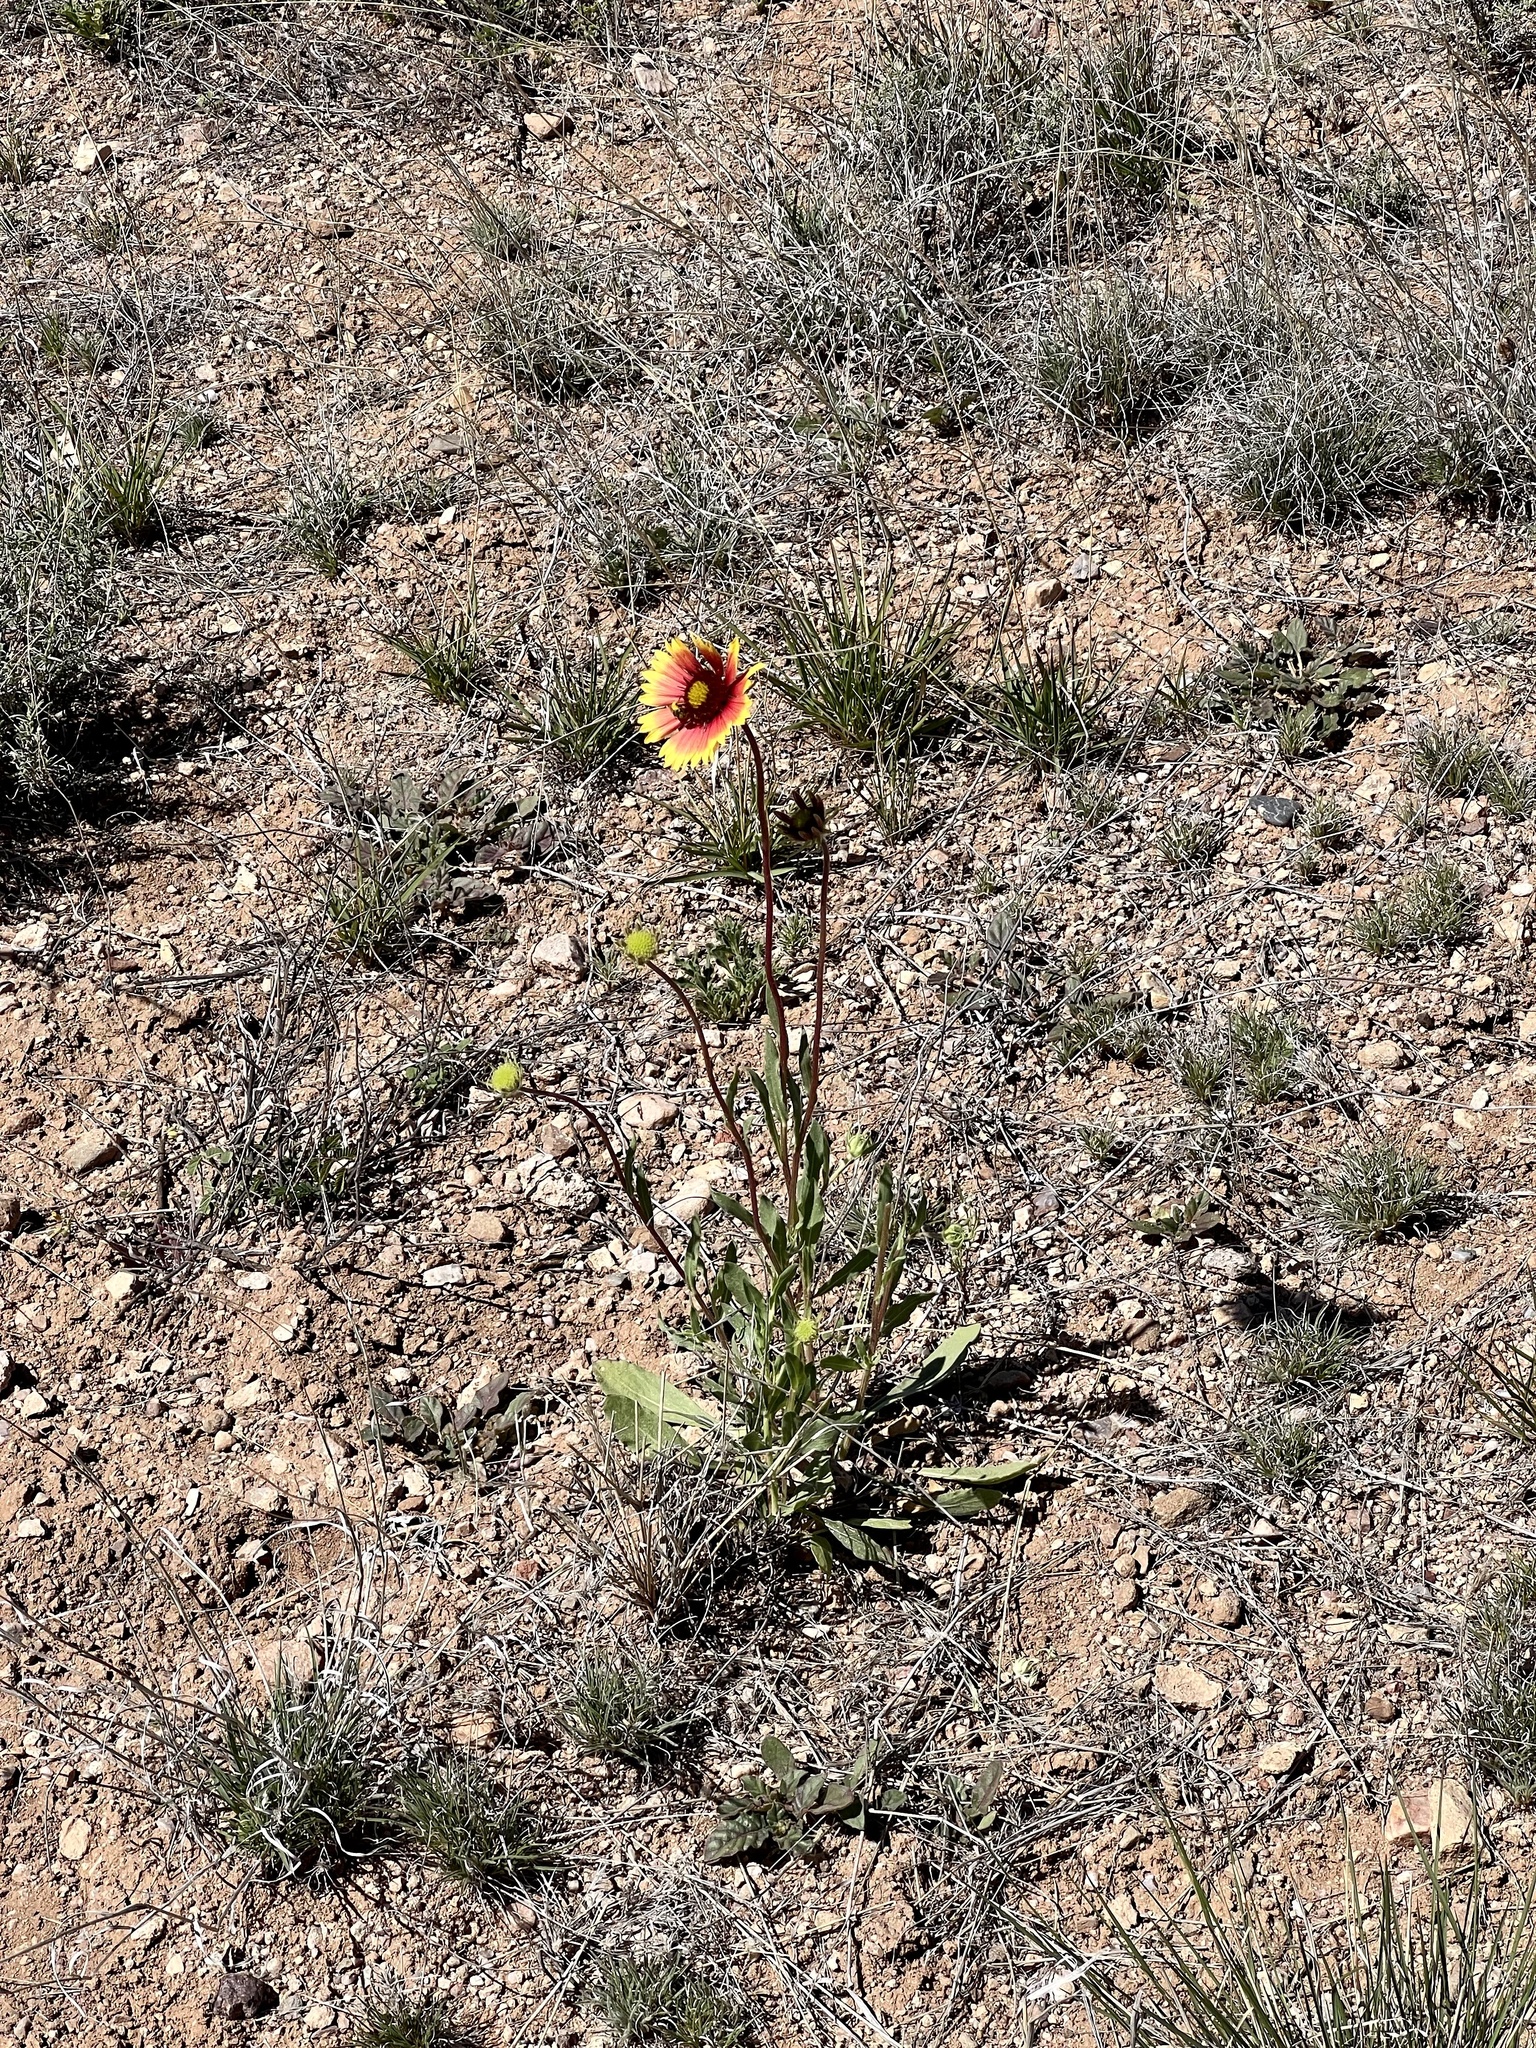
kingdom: Plantae
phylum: Tracheophyta
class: Magnoliopsida
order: Asterales
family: Asteraceae
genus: Gaillardia
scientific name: Gaillardia pulchella
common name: Firewheel
